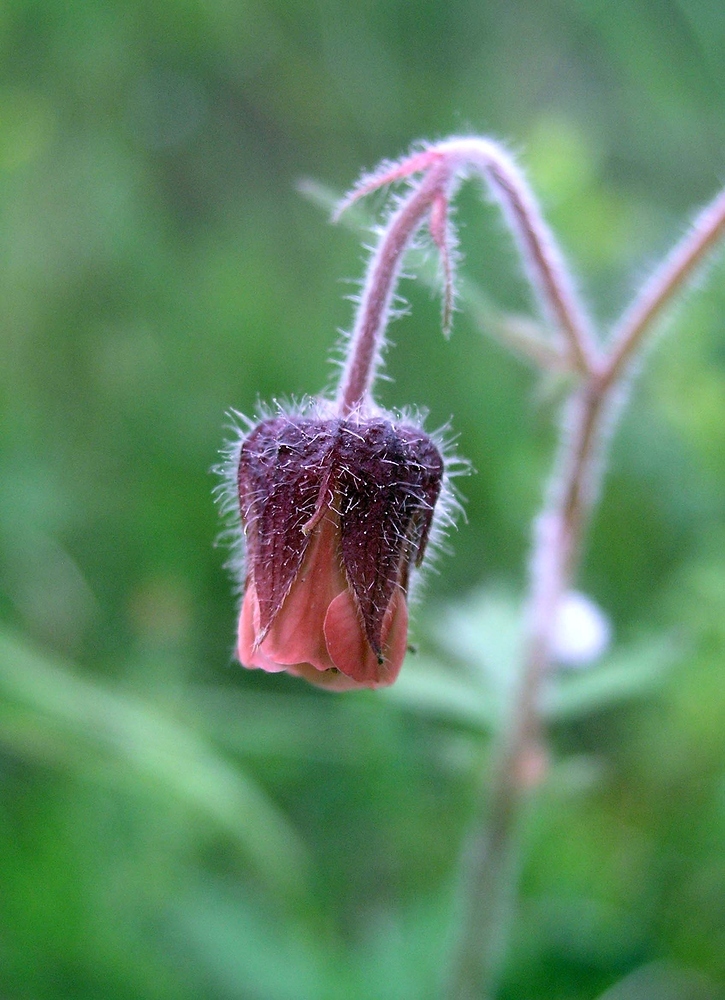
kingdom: Plantae
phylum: Tracheophyta
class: Magnoliopsida
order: Rosales
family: Rosaceae
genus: Geum
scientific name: Geum rivale
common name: Water avens
